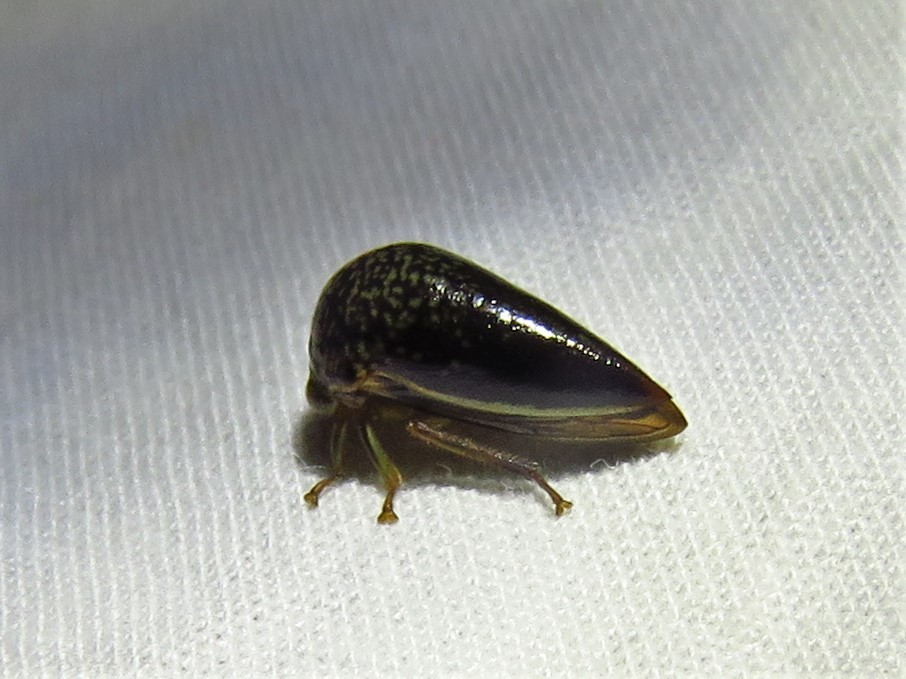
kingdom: Animalia
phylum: Arthropoda
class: Insecta
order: Hemiptera
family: Membracidae
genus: Stictopelta
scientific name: Stictopelta marmorata
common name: Treehopper
